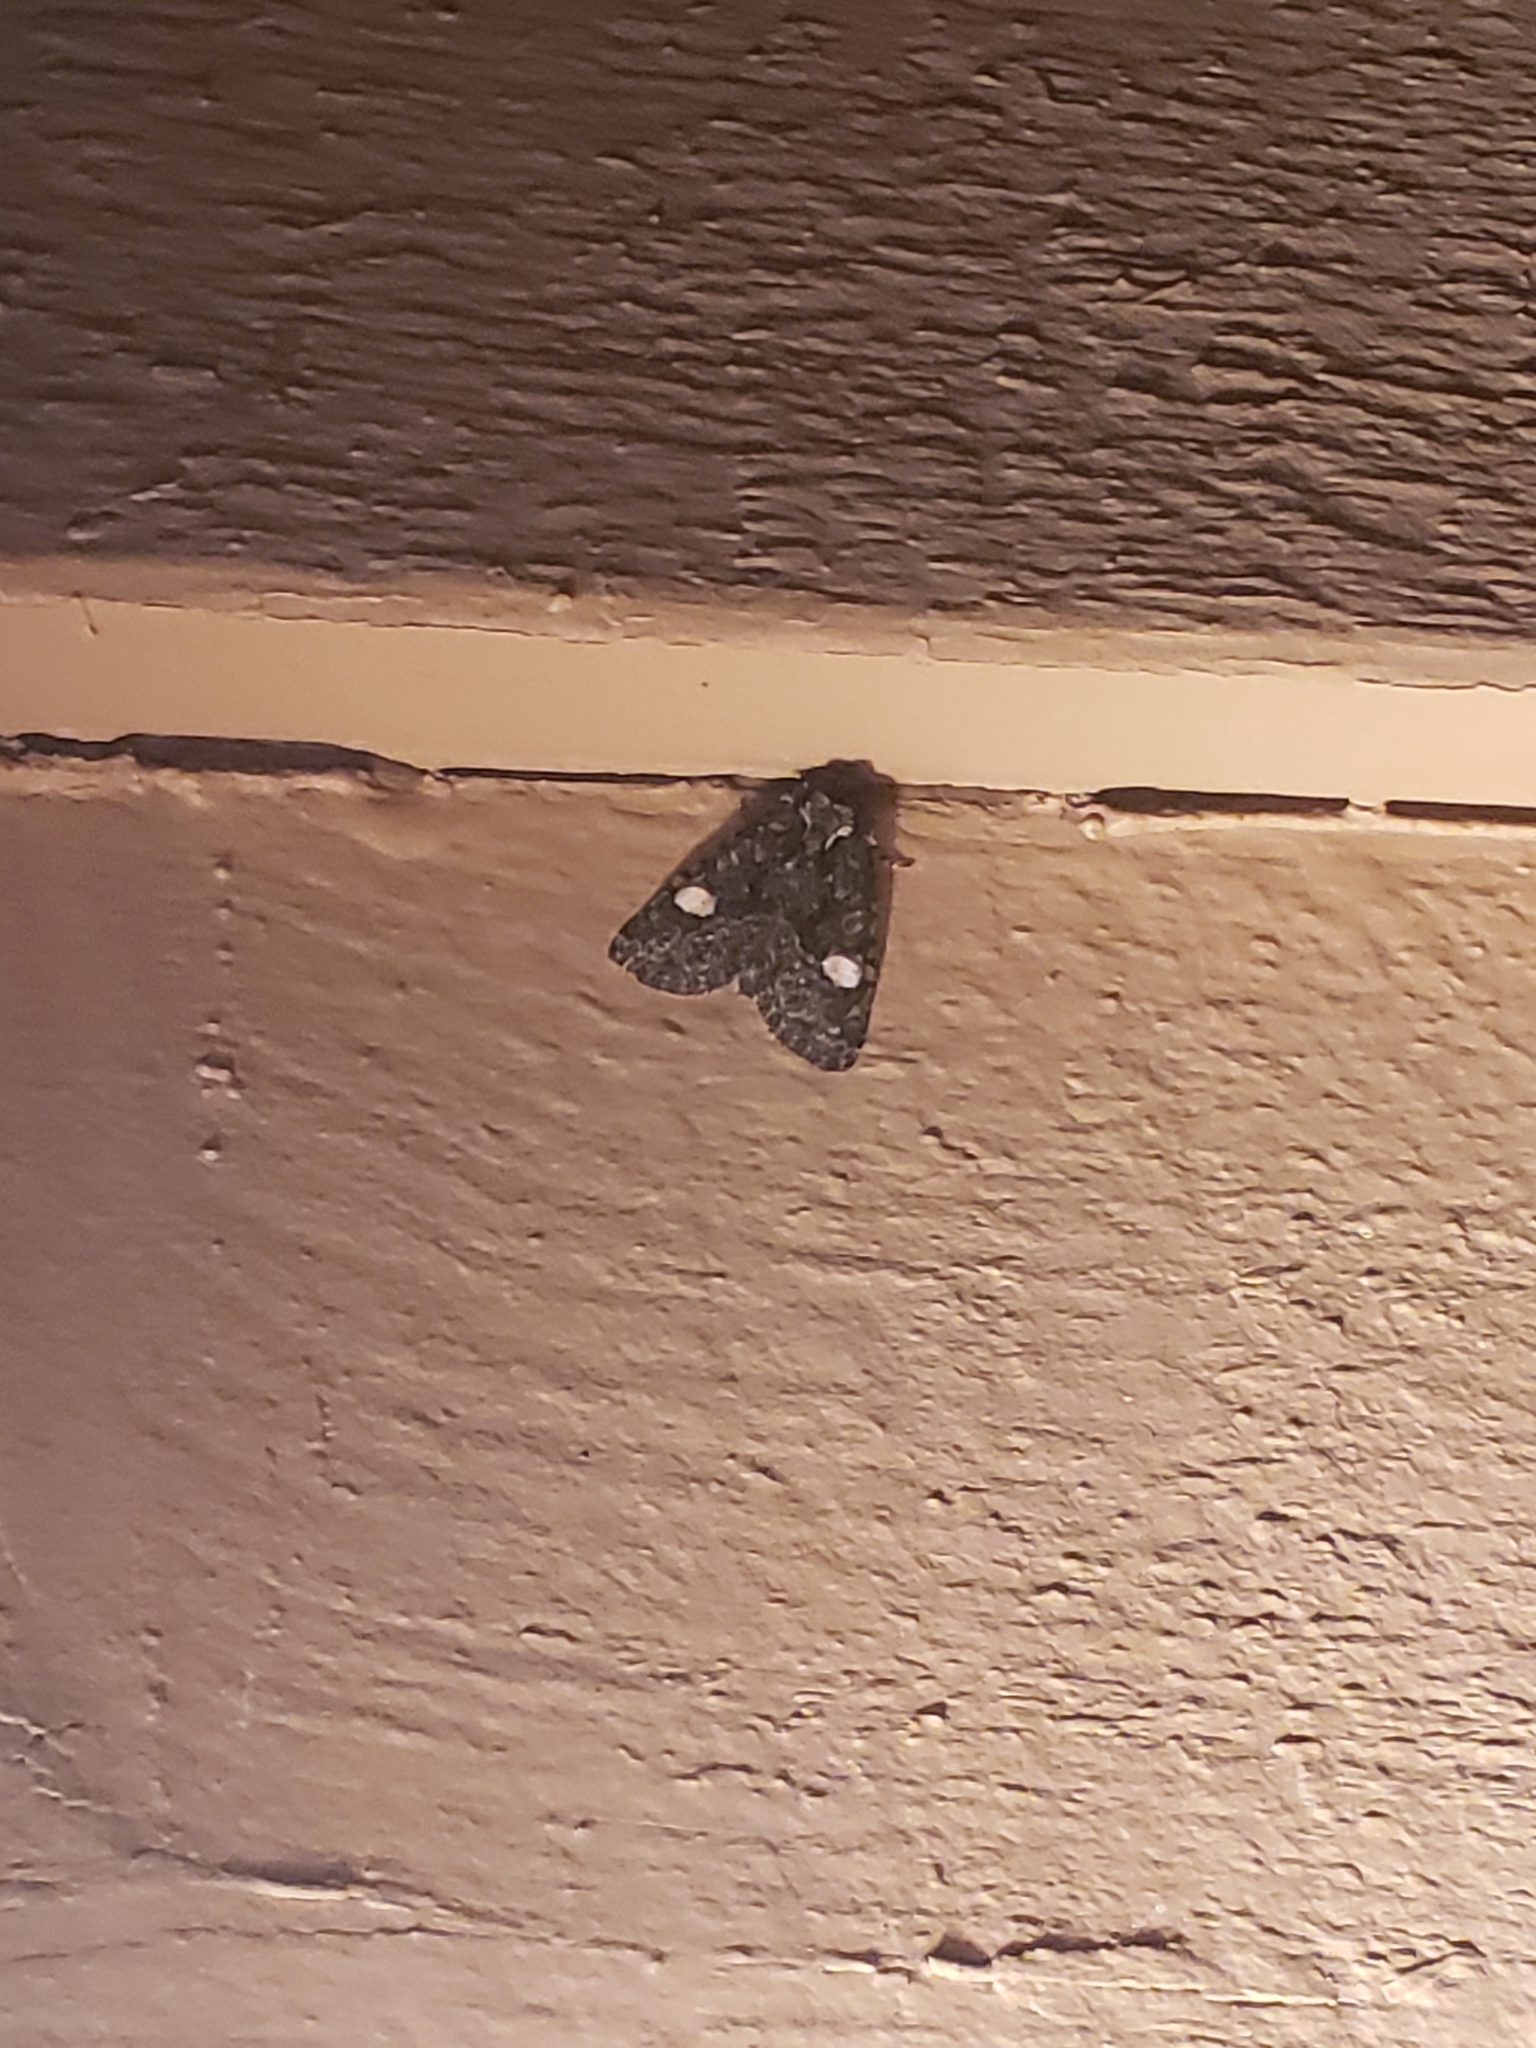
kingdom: Animalia
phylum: Arthropoda
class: Insecta
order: Lepidoptera
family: Noctuidae
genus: Phosphila
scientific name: Phosphila miselioides
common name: Spotted phosphila moth
